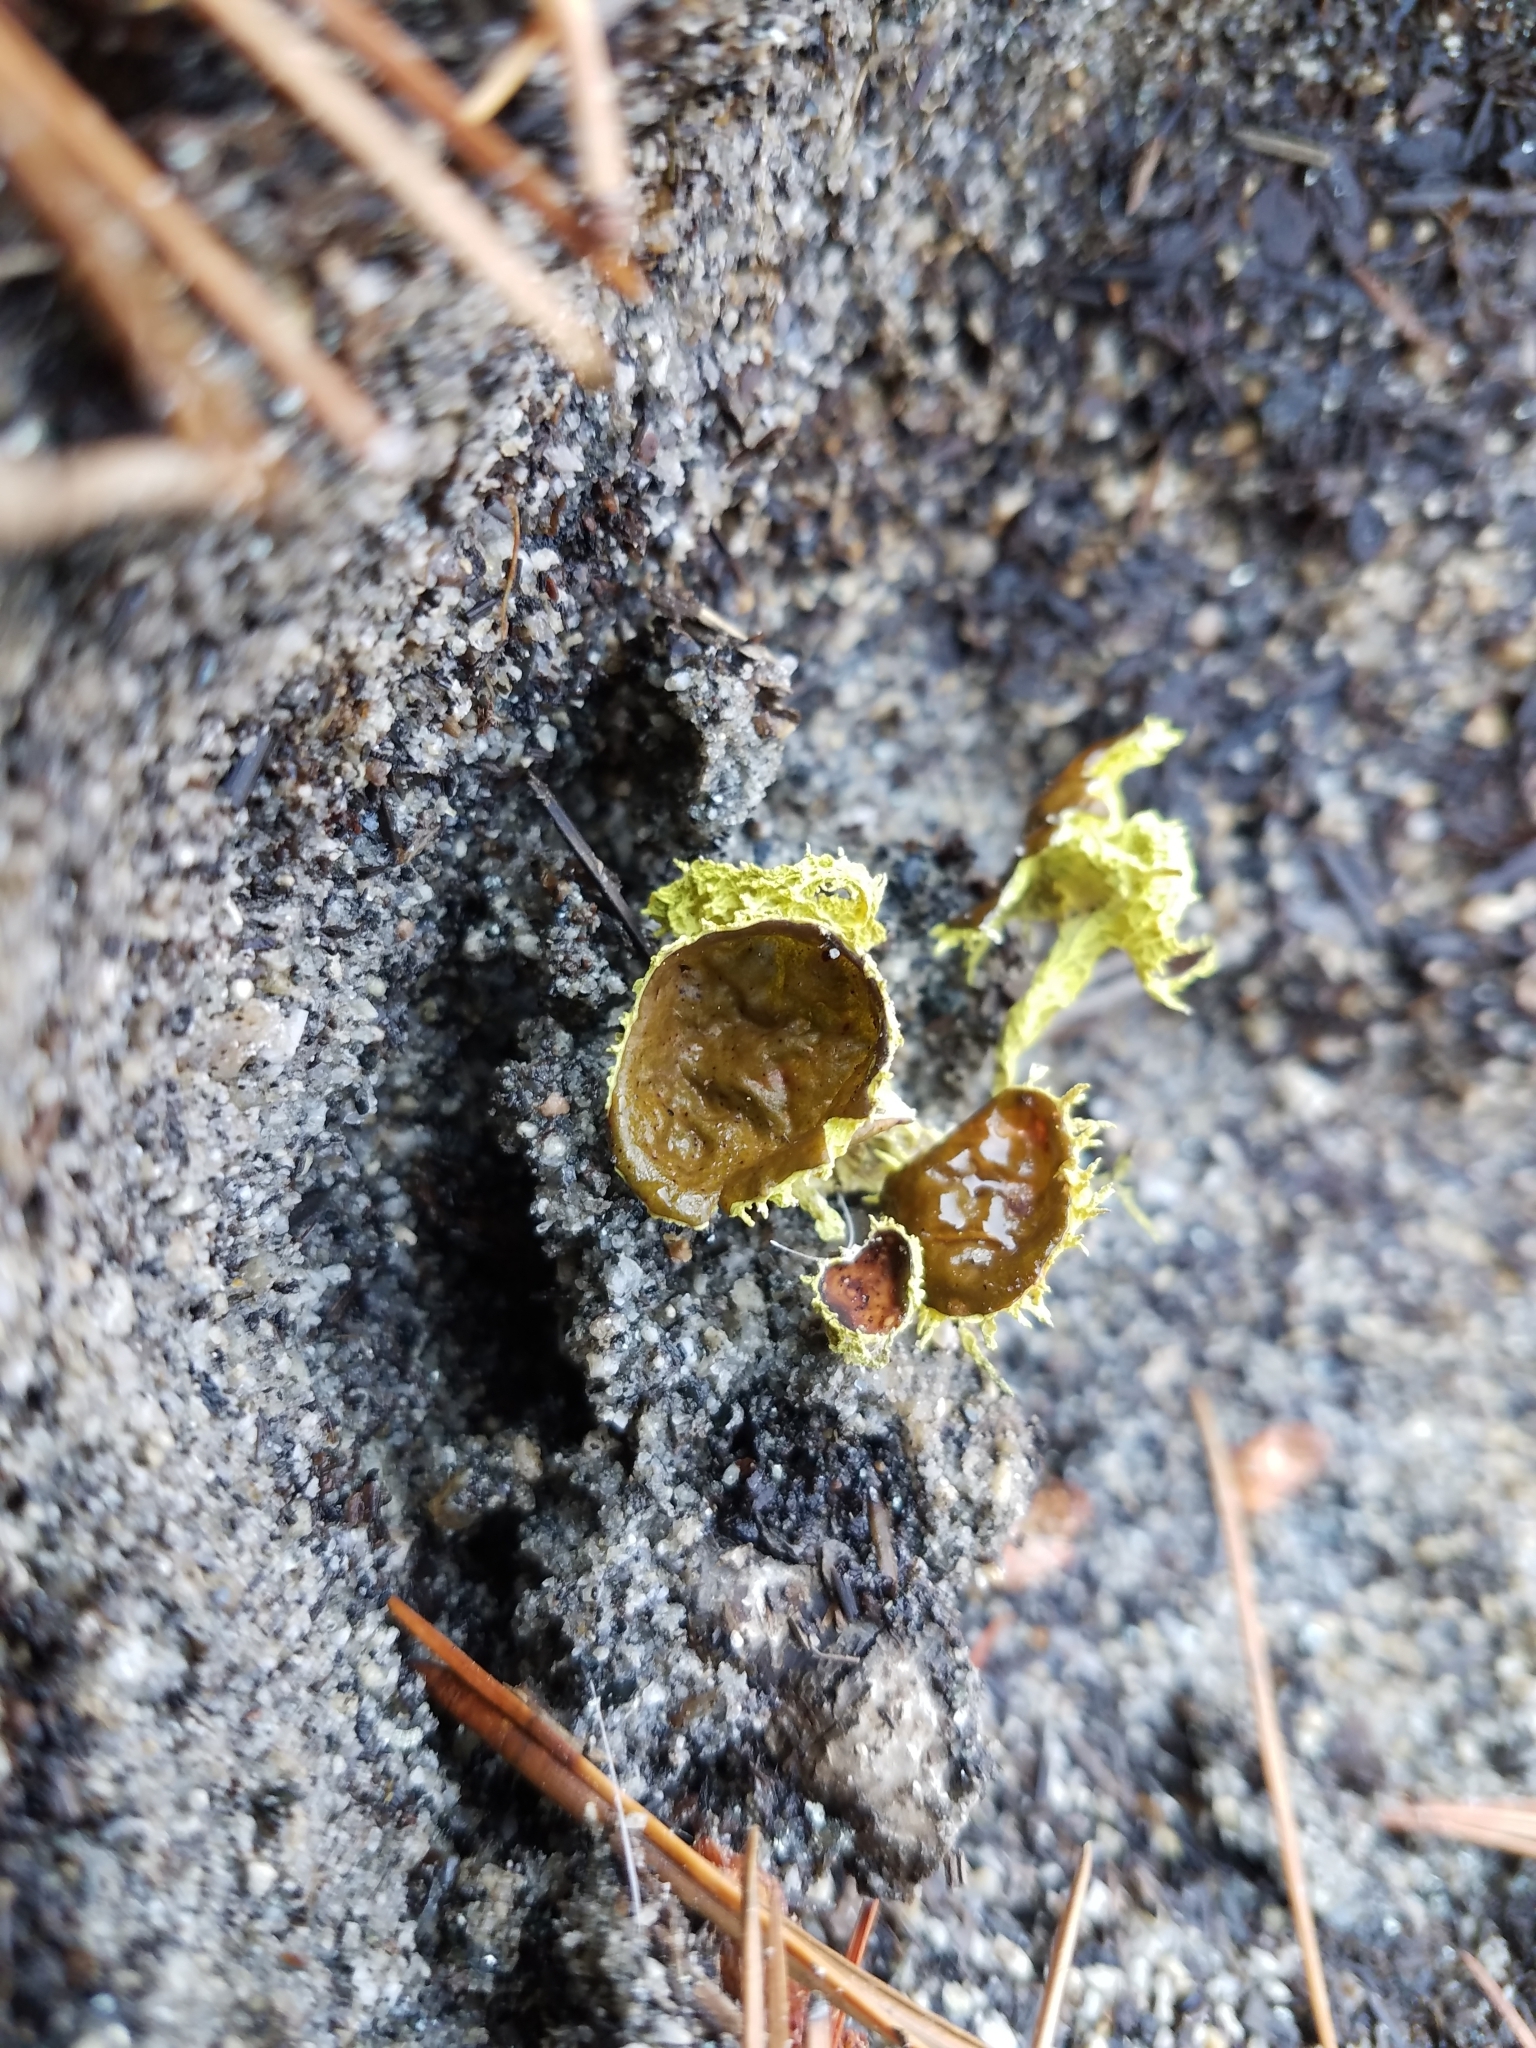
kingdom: Fungi
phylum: Ascomycota
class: Lecanoromycetes
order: Lecanorales
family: Parmeliaceae
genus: Letharia
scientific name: Letharia columbiana
